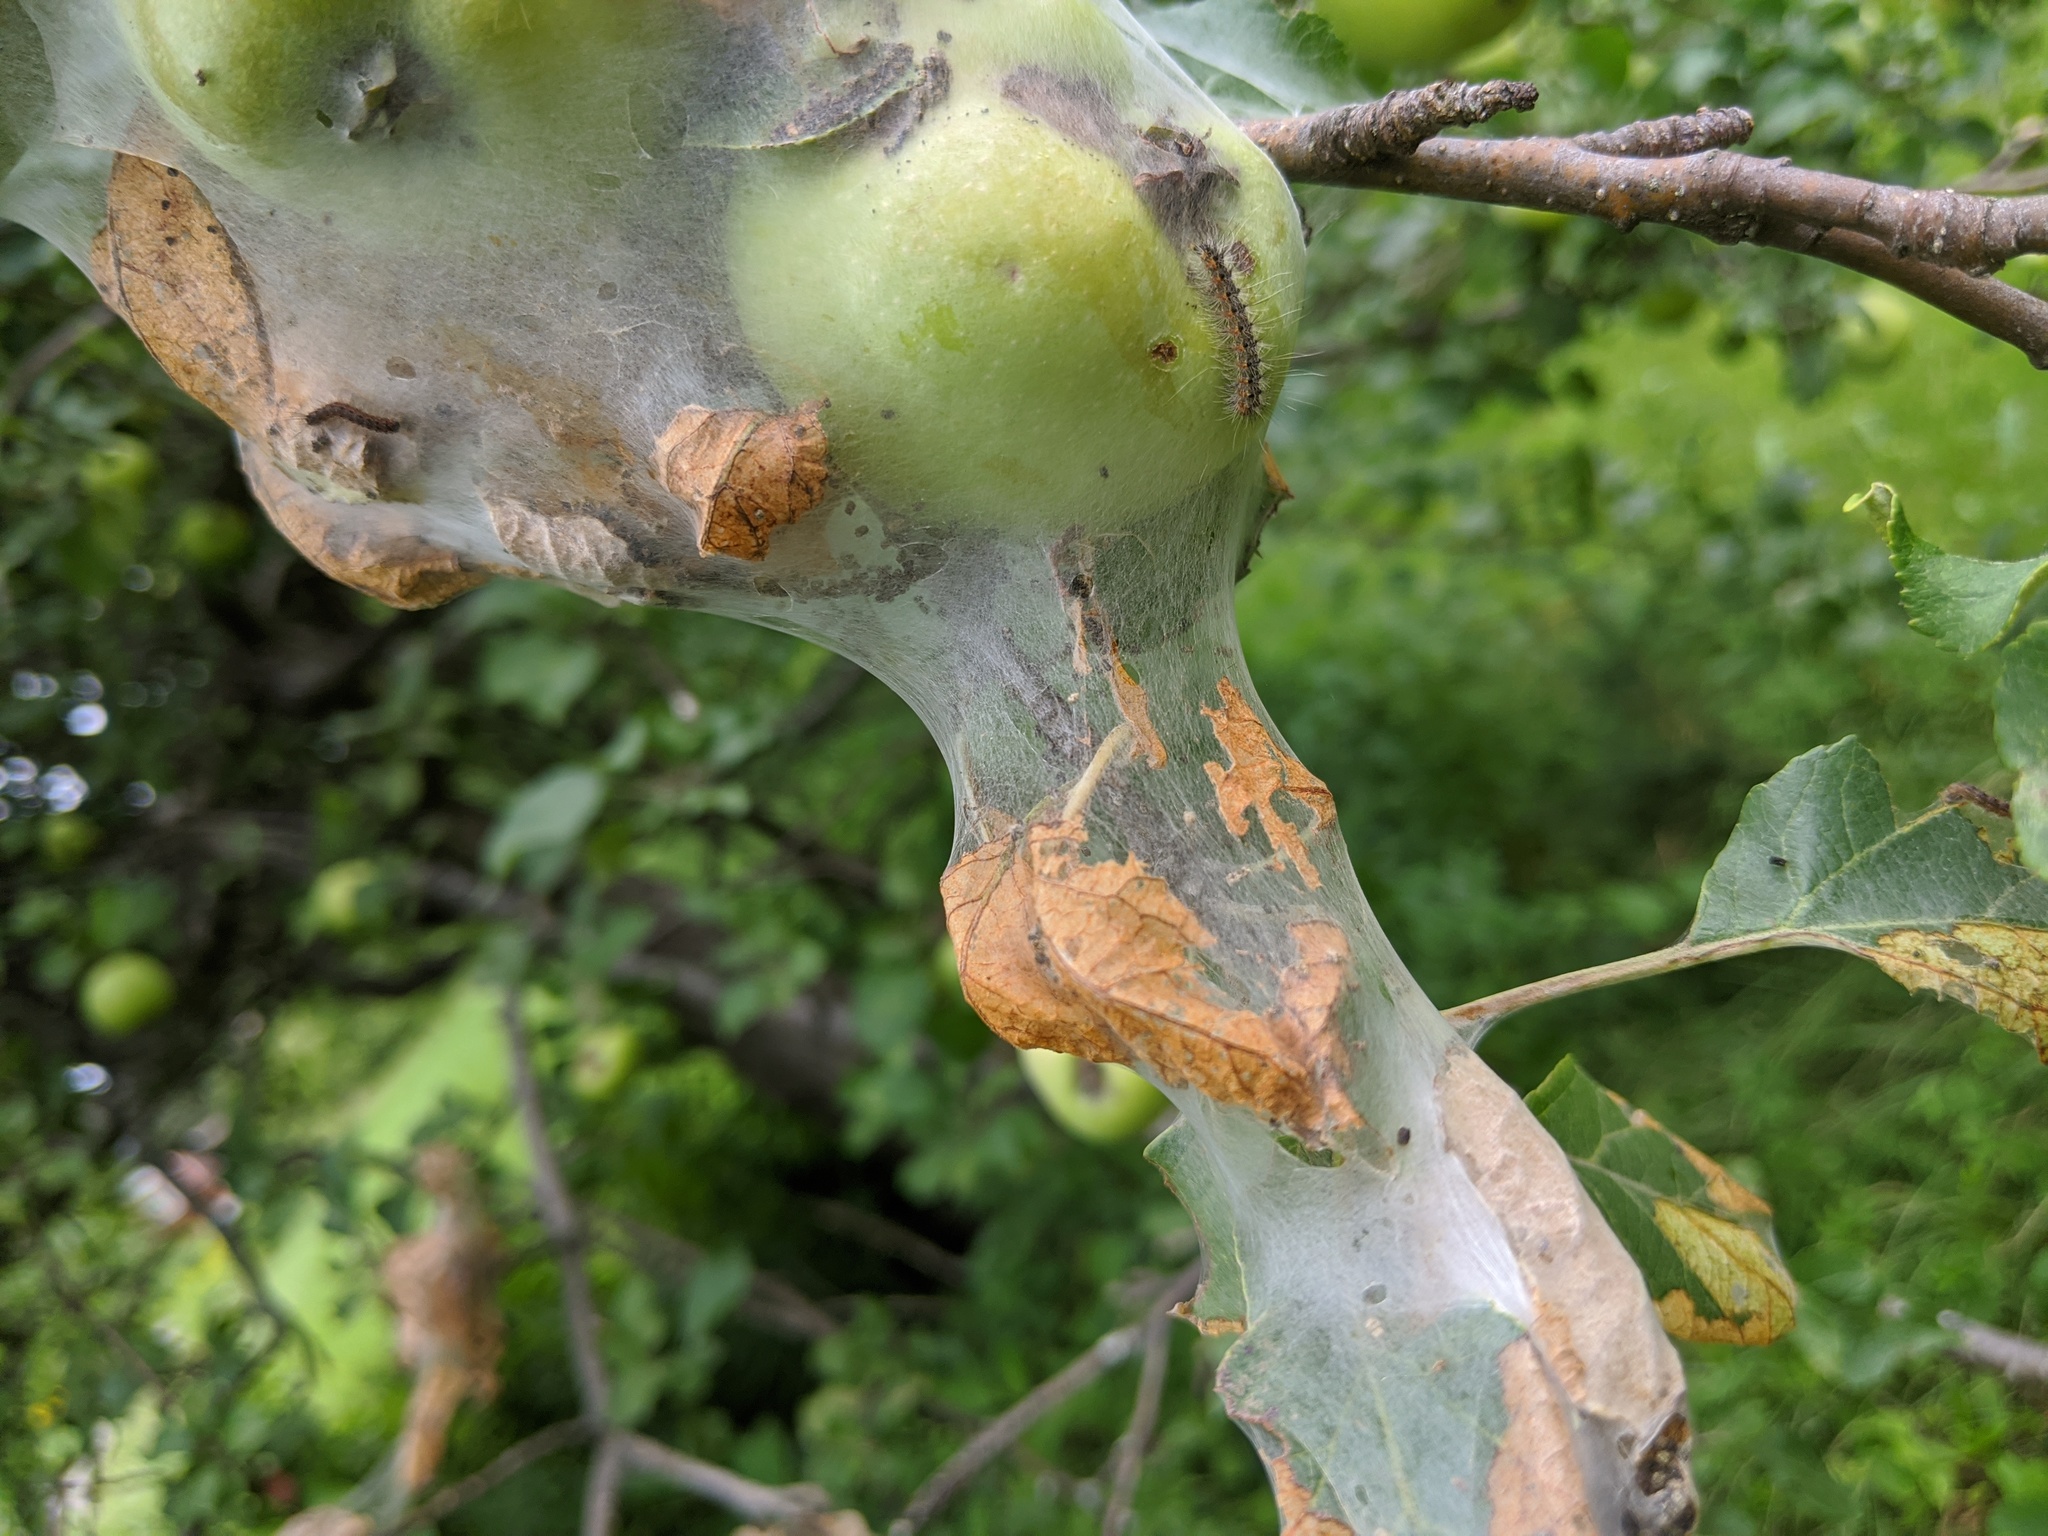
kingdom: Animalia
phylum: Arthropoda
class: Insecta
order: Lepidoptera
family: Erebidae
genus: Hyphantria
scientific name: Hyphantria cunea
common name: American white moth
